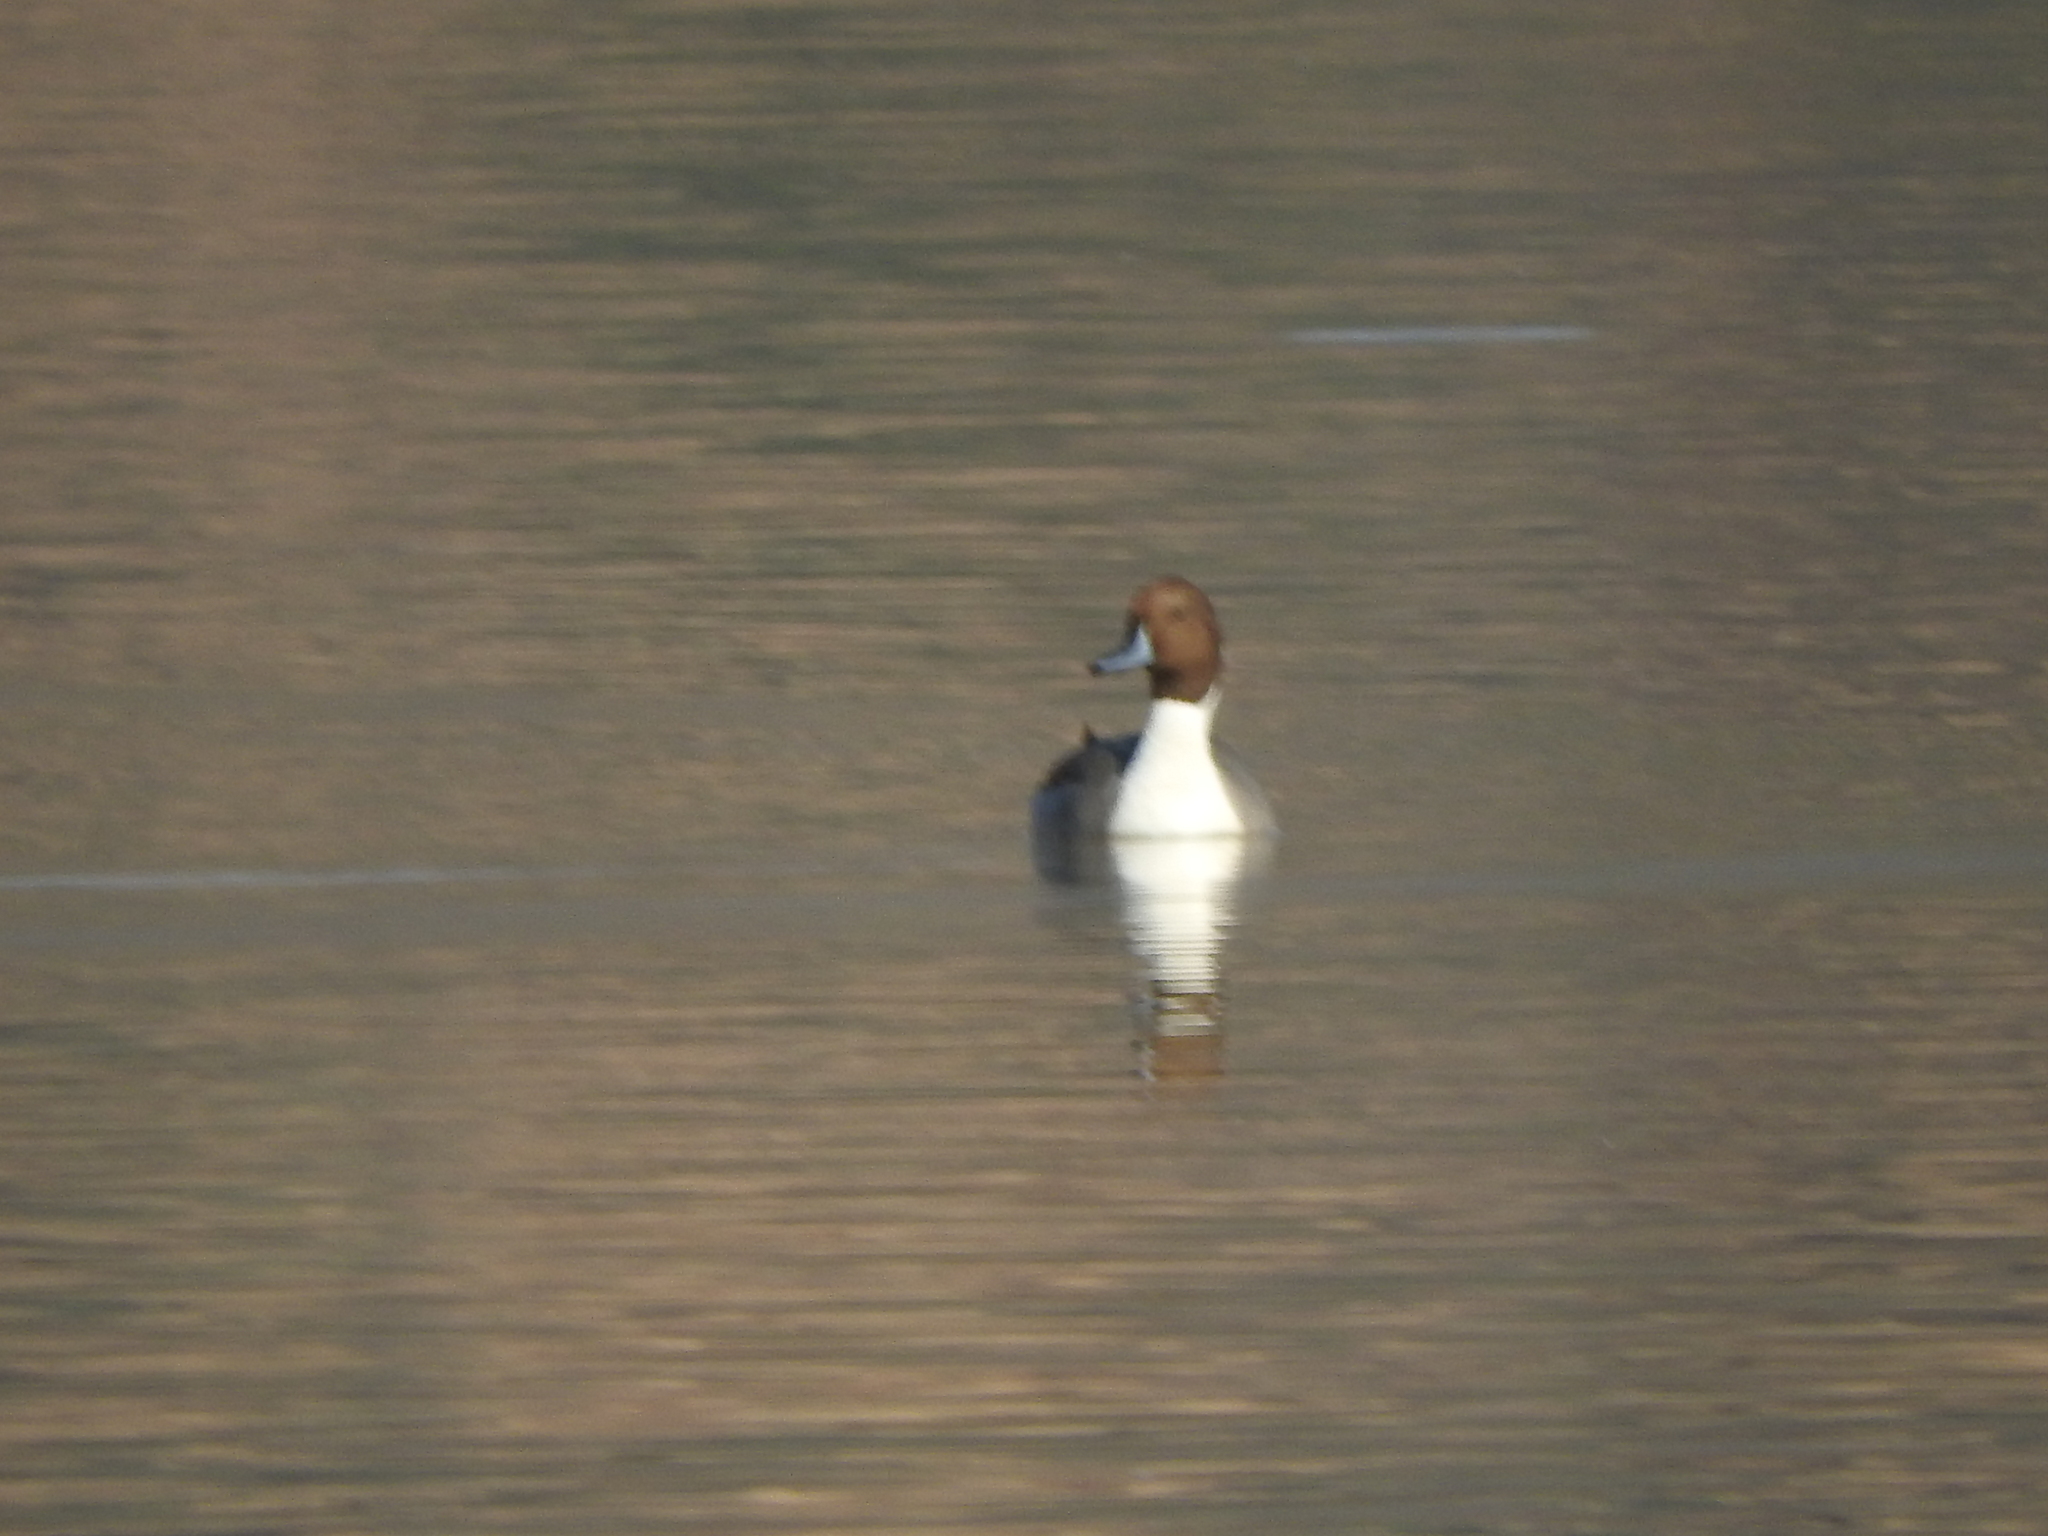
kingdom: Animalia
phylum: Chordata
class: Aves
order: Anseriformes
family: Anatidae
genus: Anas
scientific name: Anas acuta
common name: Northern pintail
